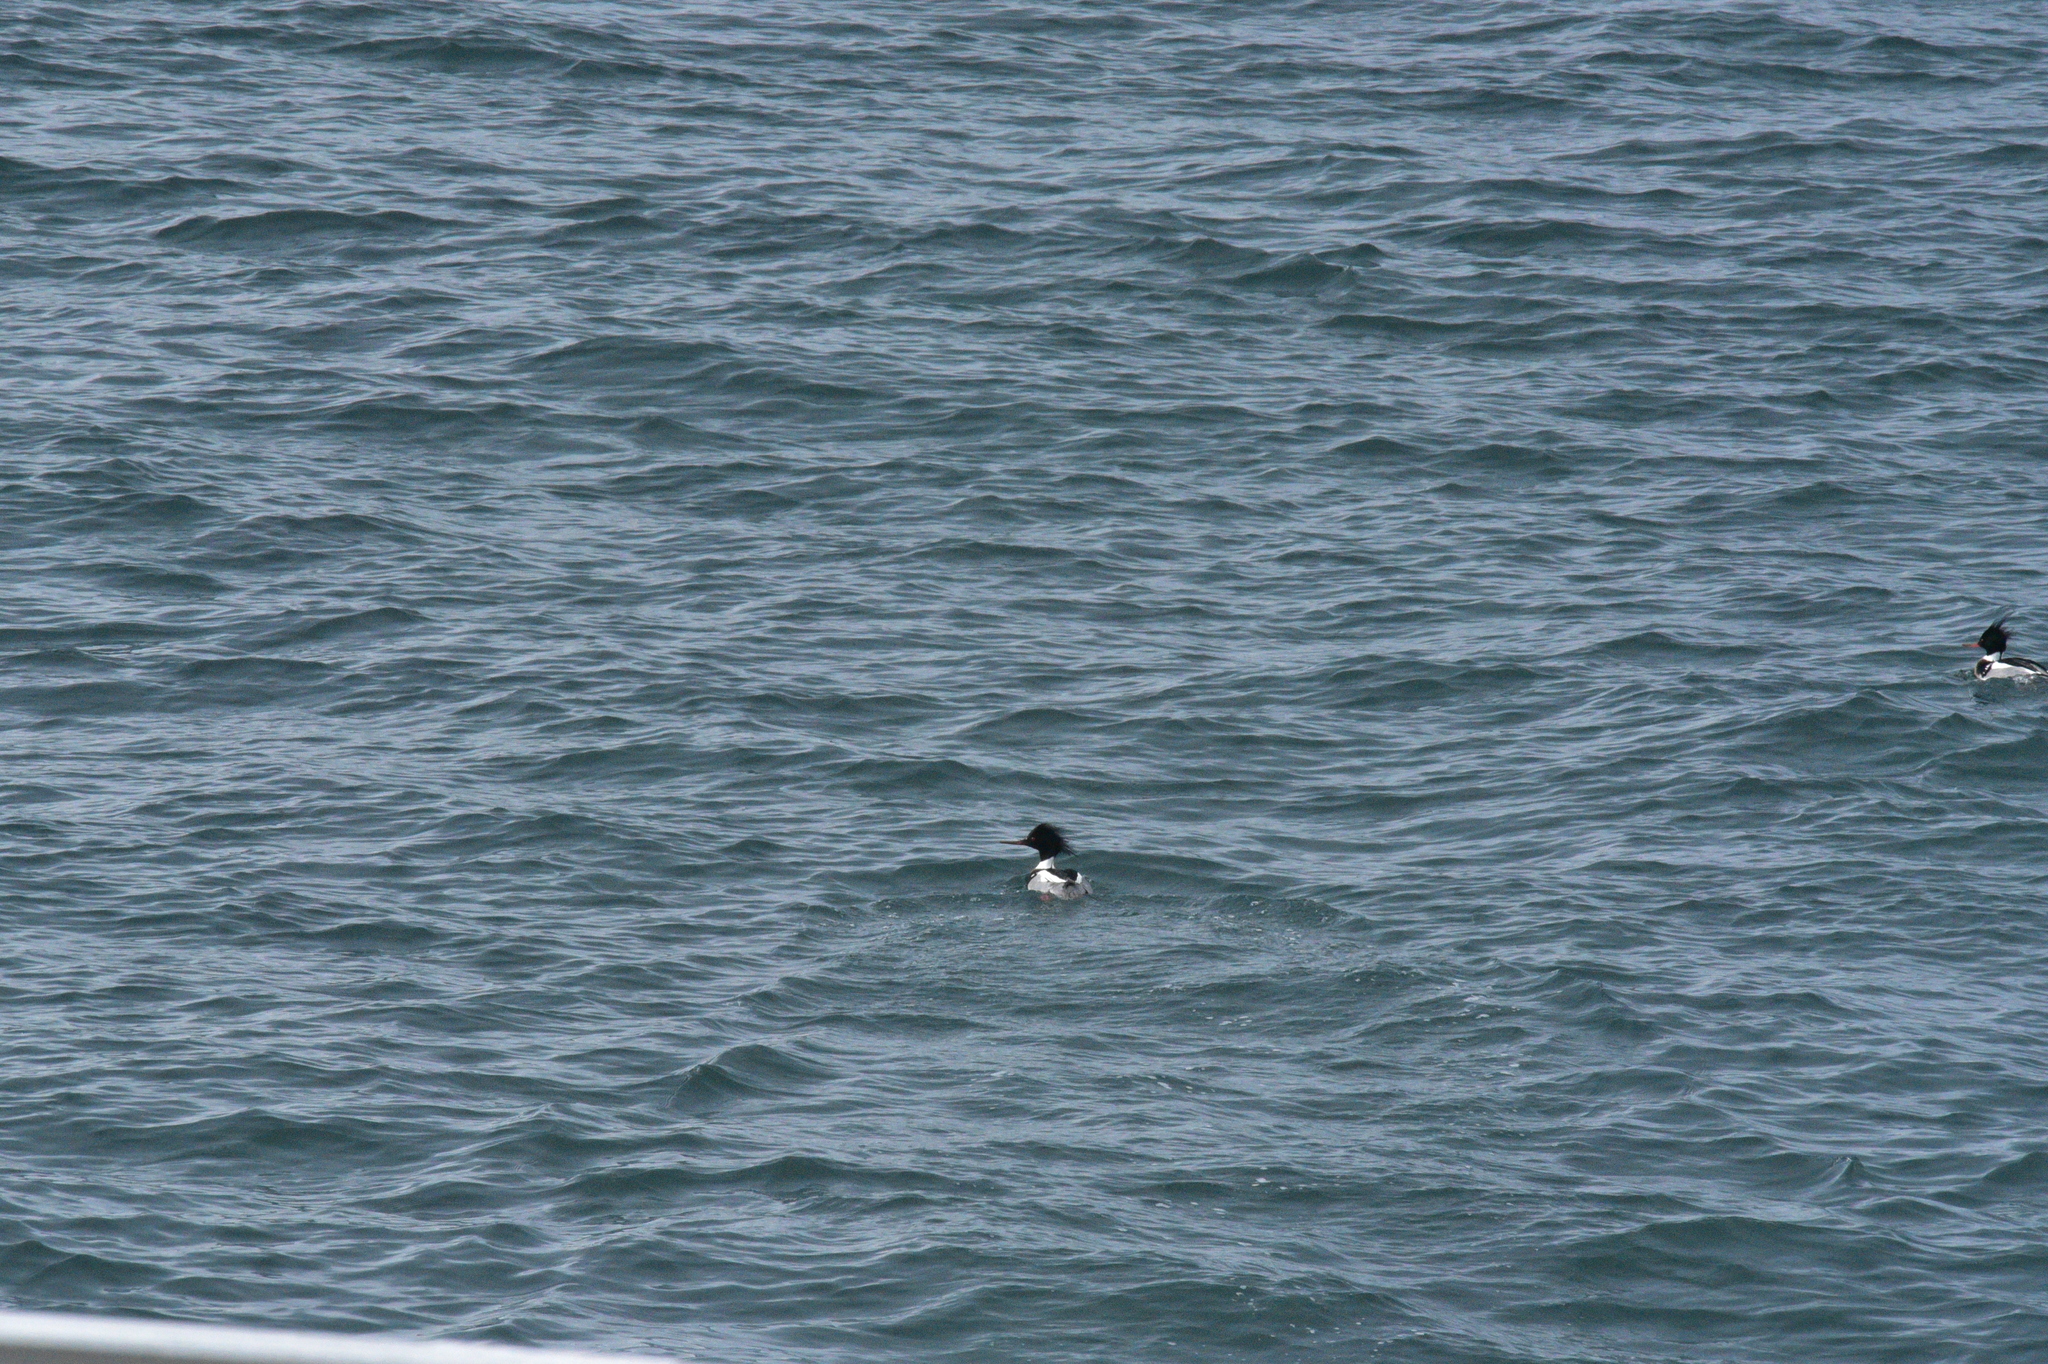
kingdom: Animalia
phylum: Chordata
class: Aves
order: Anseriformes
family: Anatidae
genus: Mergus
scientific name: Mergus serrator
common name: Red-breasted merganser
